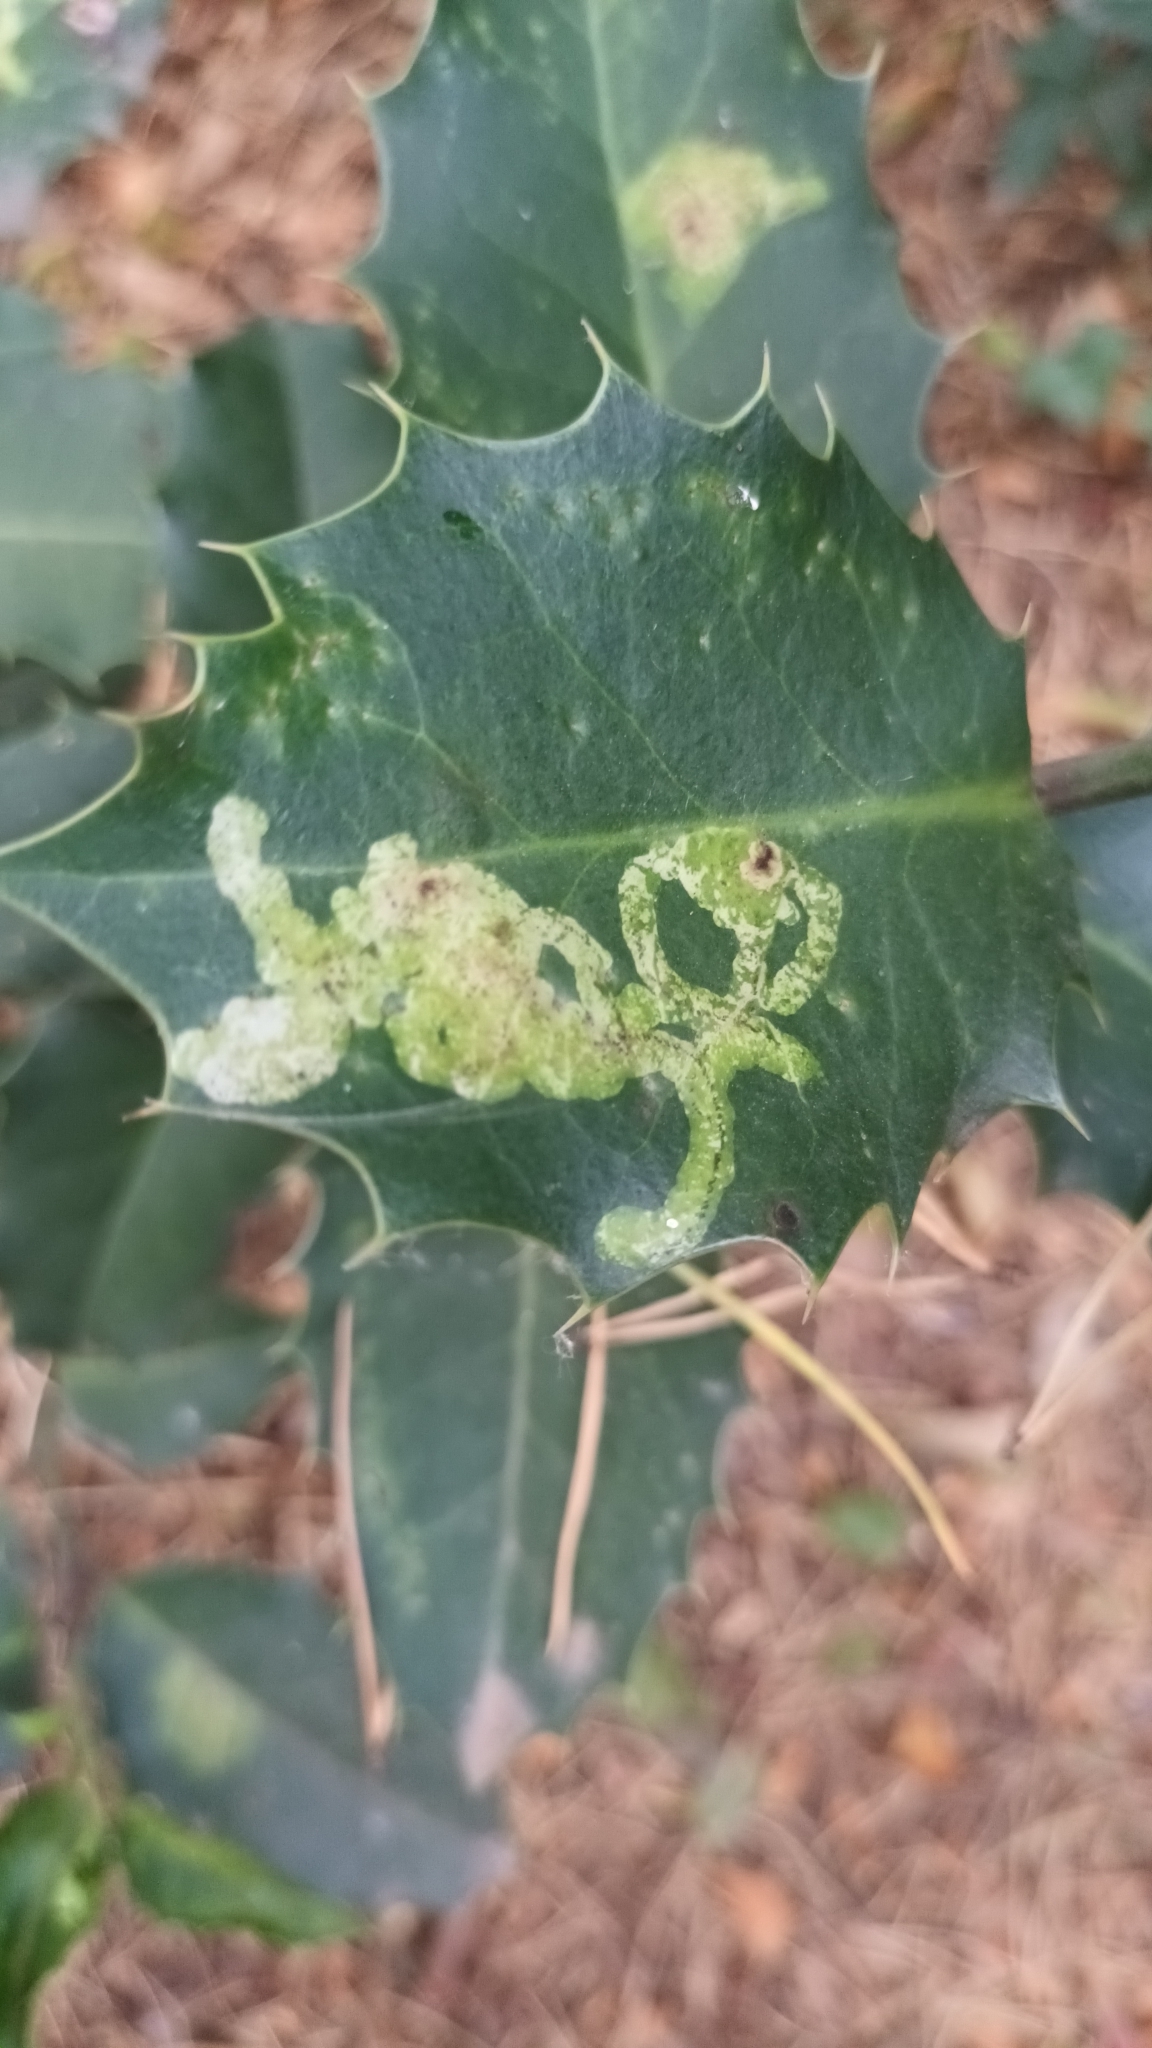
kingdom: Animalia
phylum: Arthropoda
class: Insecta
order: Diptera
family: Agromyzidae
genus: Phytomyza
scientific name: Phytomyza ilicis
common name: Holly leafminer
